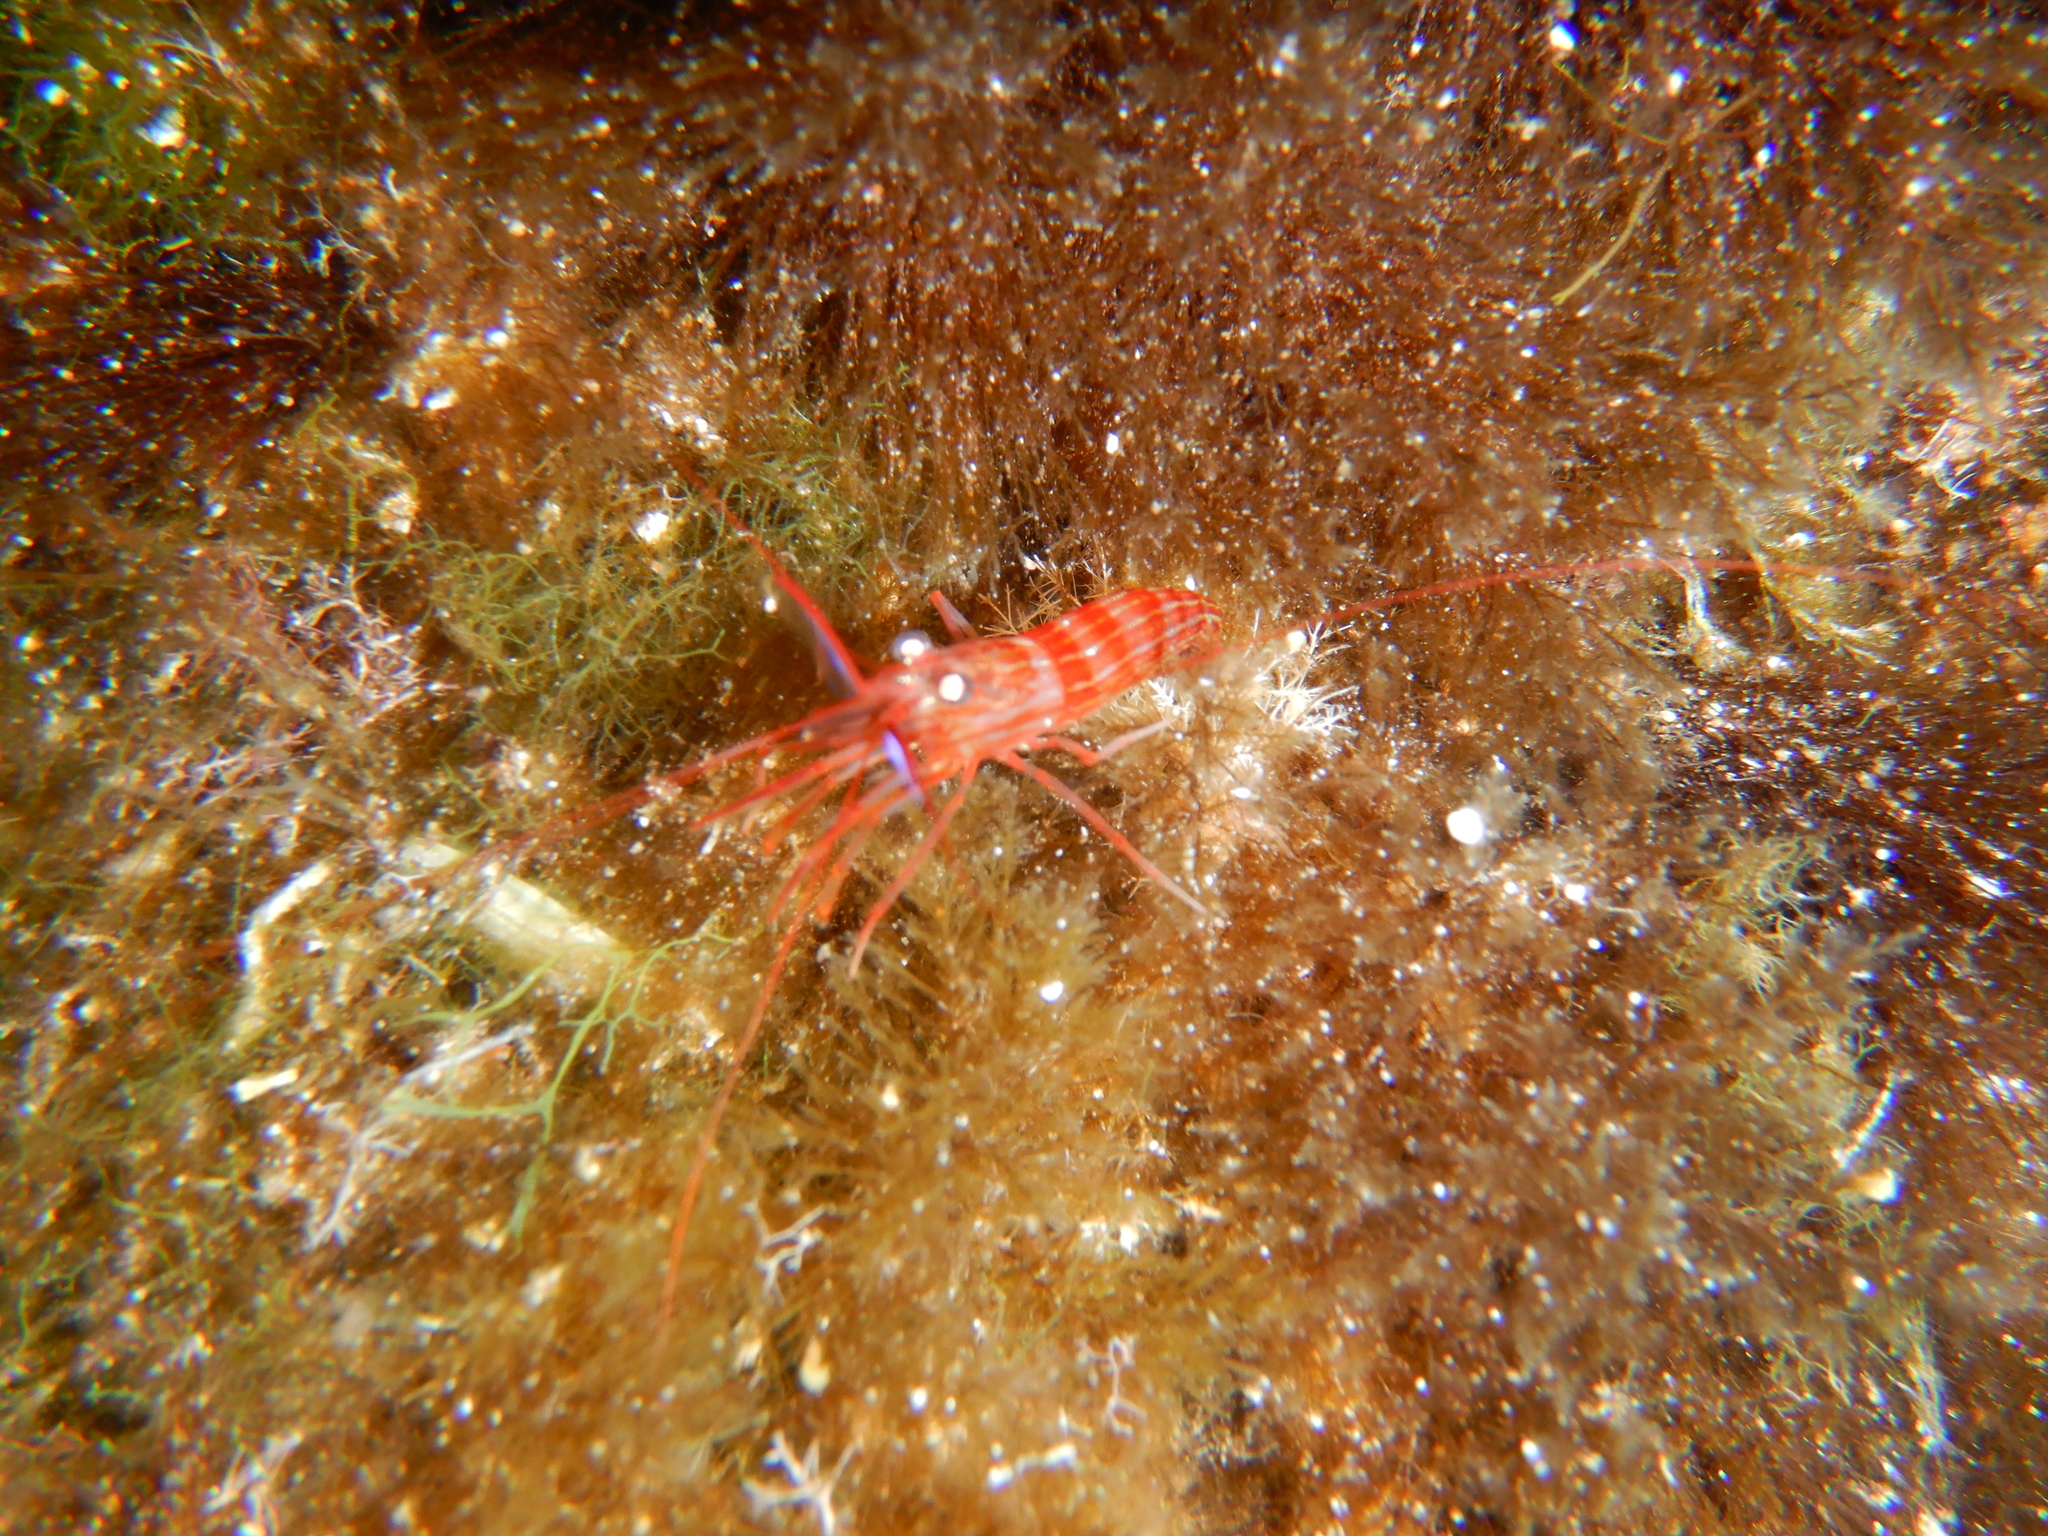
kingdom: Animalia
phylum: Arthropoda
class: Malacostraca
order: Decapoda
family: Lysmatidae
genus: Lysmata
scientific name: Lysmata seticaudata
